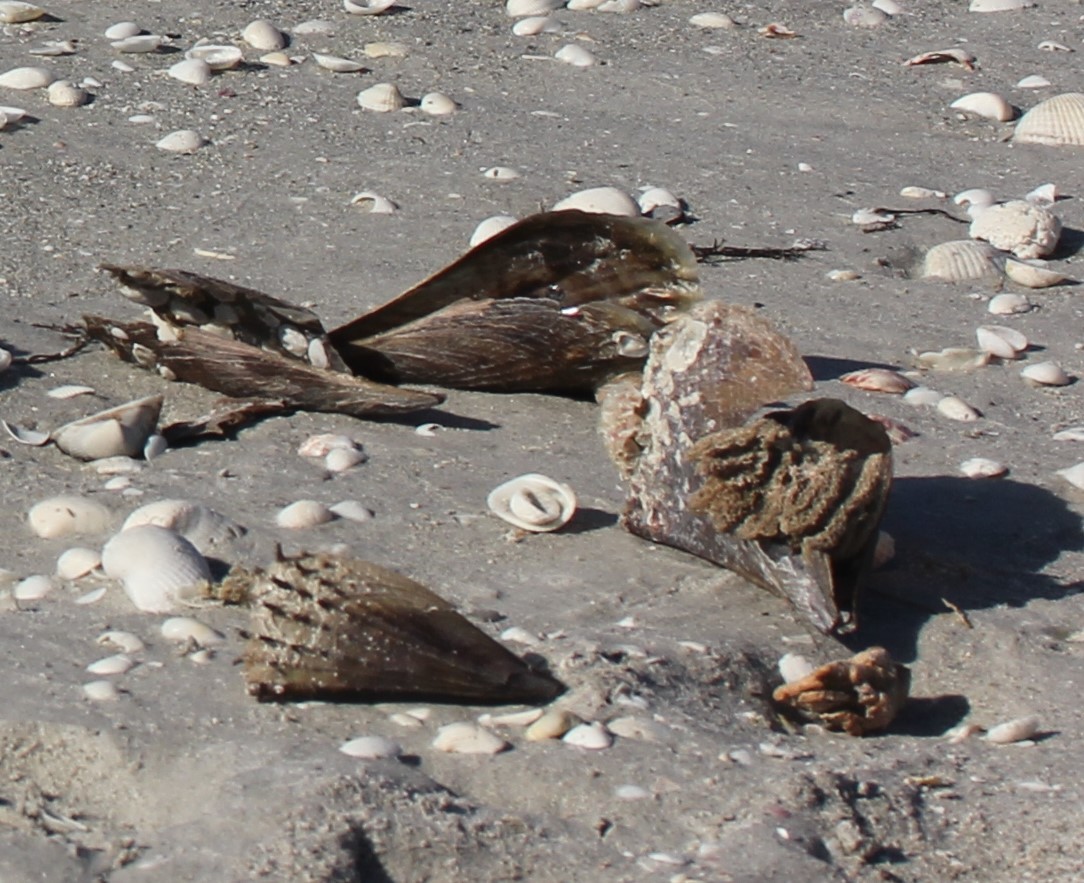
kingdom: Animalia
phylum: Mollusca
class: Bivalvia
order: Ostreida
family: Pinnidae
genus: Atrina
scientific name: Atrina rigida
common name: Stiff penshell
